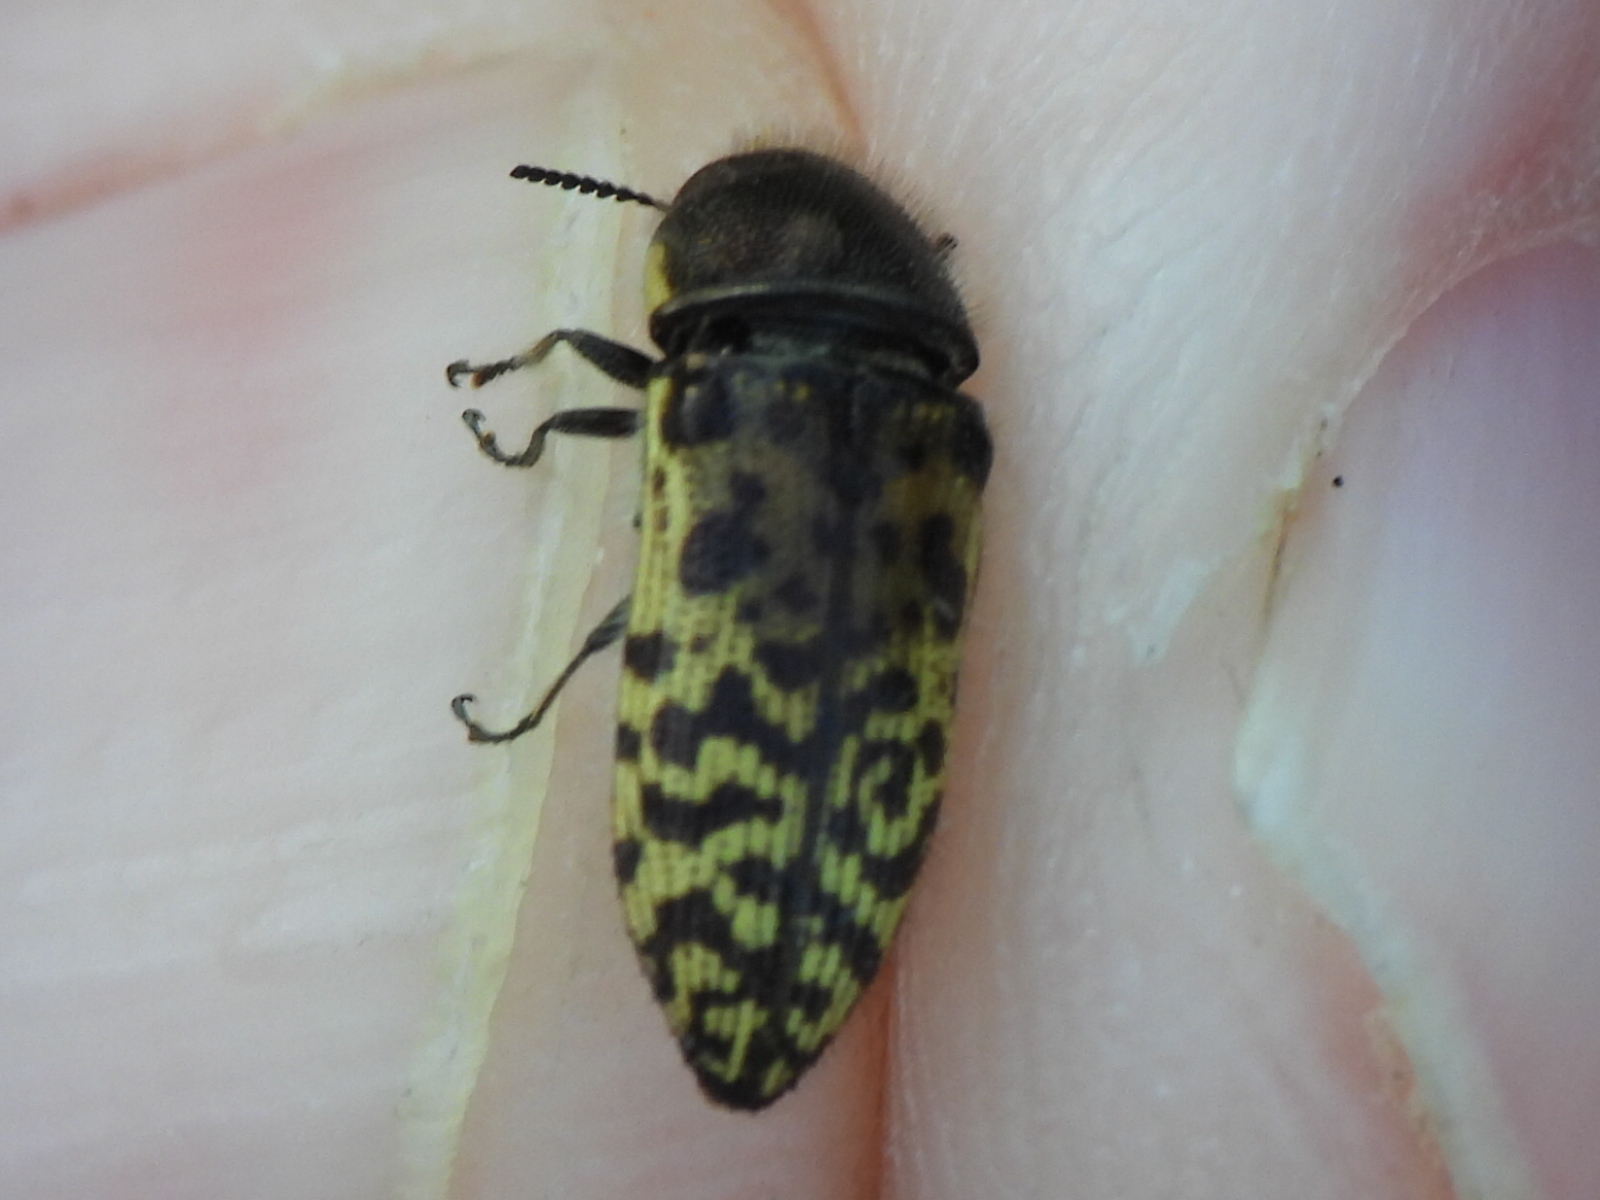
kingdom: Animalia
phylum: Arthropoda
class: Insecta
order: Coleoptera
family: Buprestidae
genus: Acmaeodera
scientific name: Acmaeodera mixta
